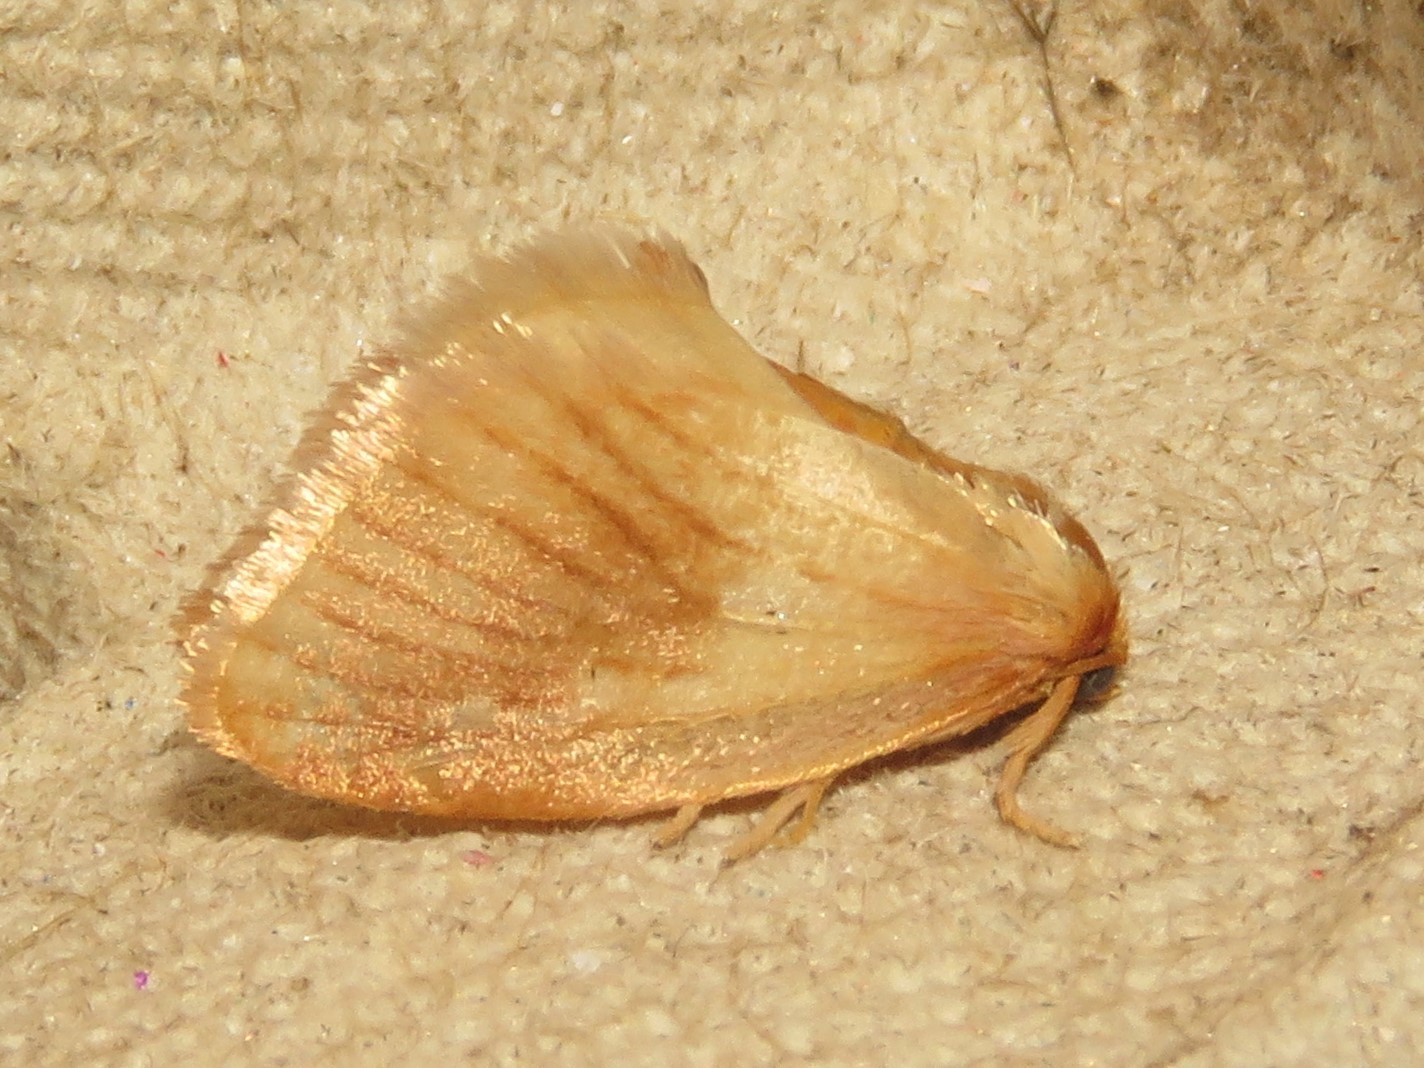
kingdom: Animalia
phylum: Arthropoda
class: Insecta
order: Lepidoptera
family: Limacodidae
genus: Tortricidia
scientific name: Tortricidia testacea
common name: Early button slug moth
